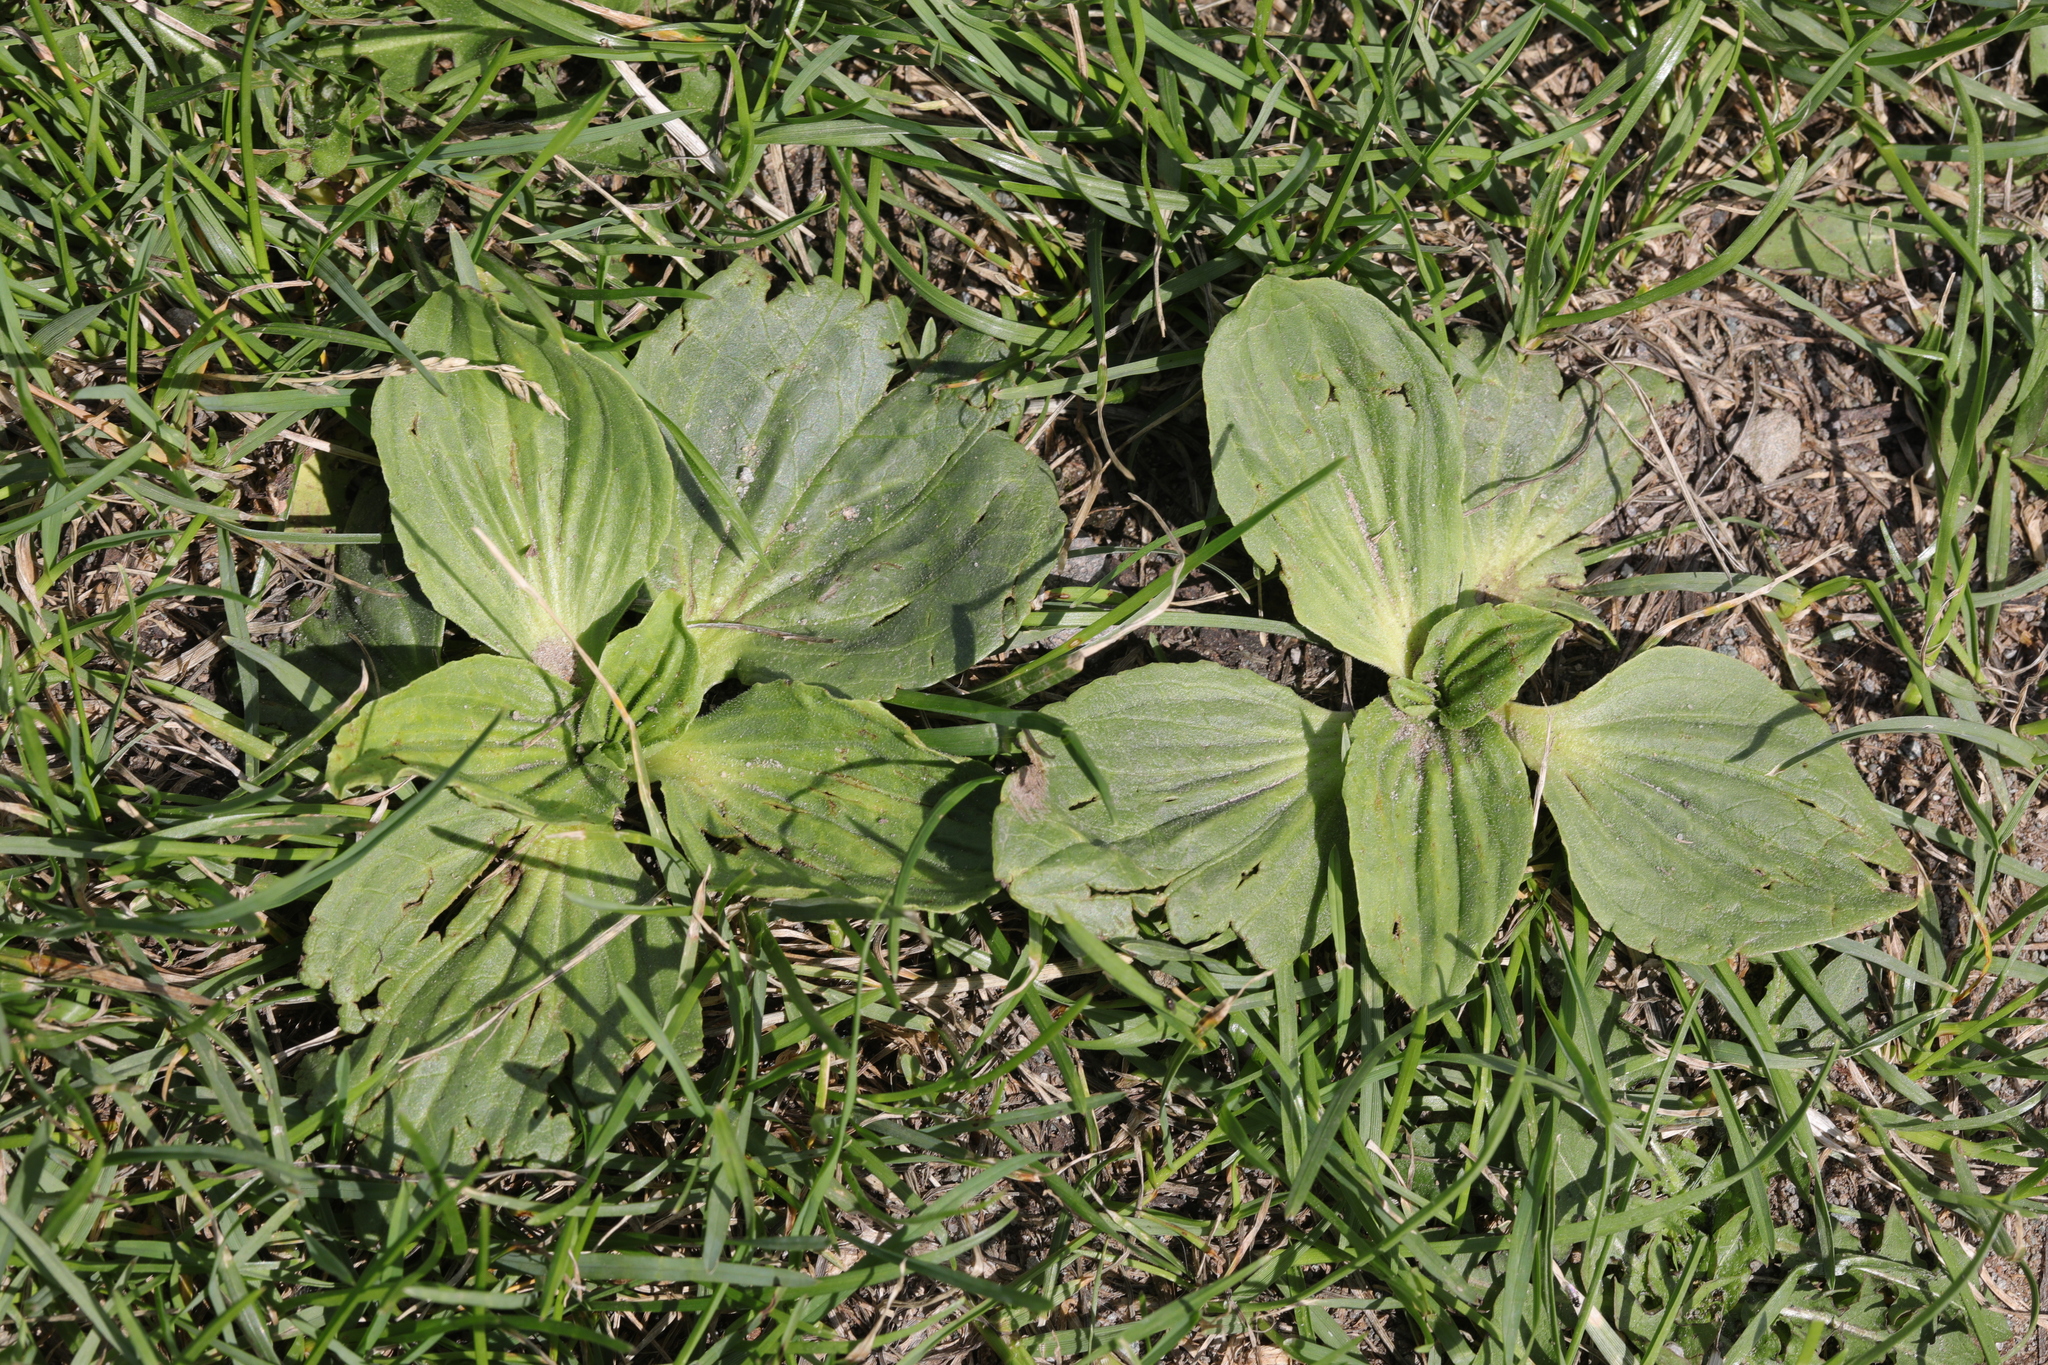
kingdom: Plantae
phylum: Tracheophyta
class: Magnoliopsida
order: Lamiales
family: Plantaginaceae
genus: Plantago
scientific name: Plantago major
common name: Common plantain
